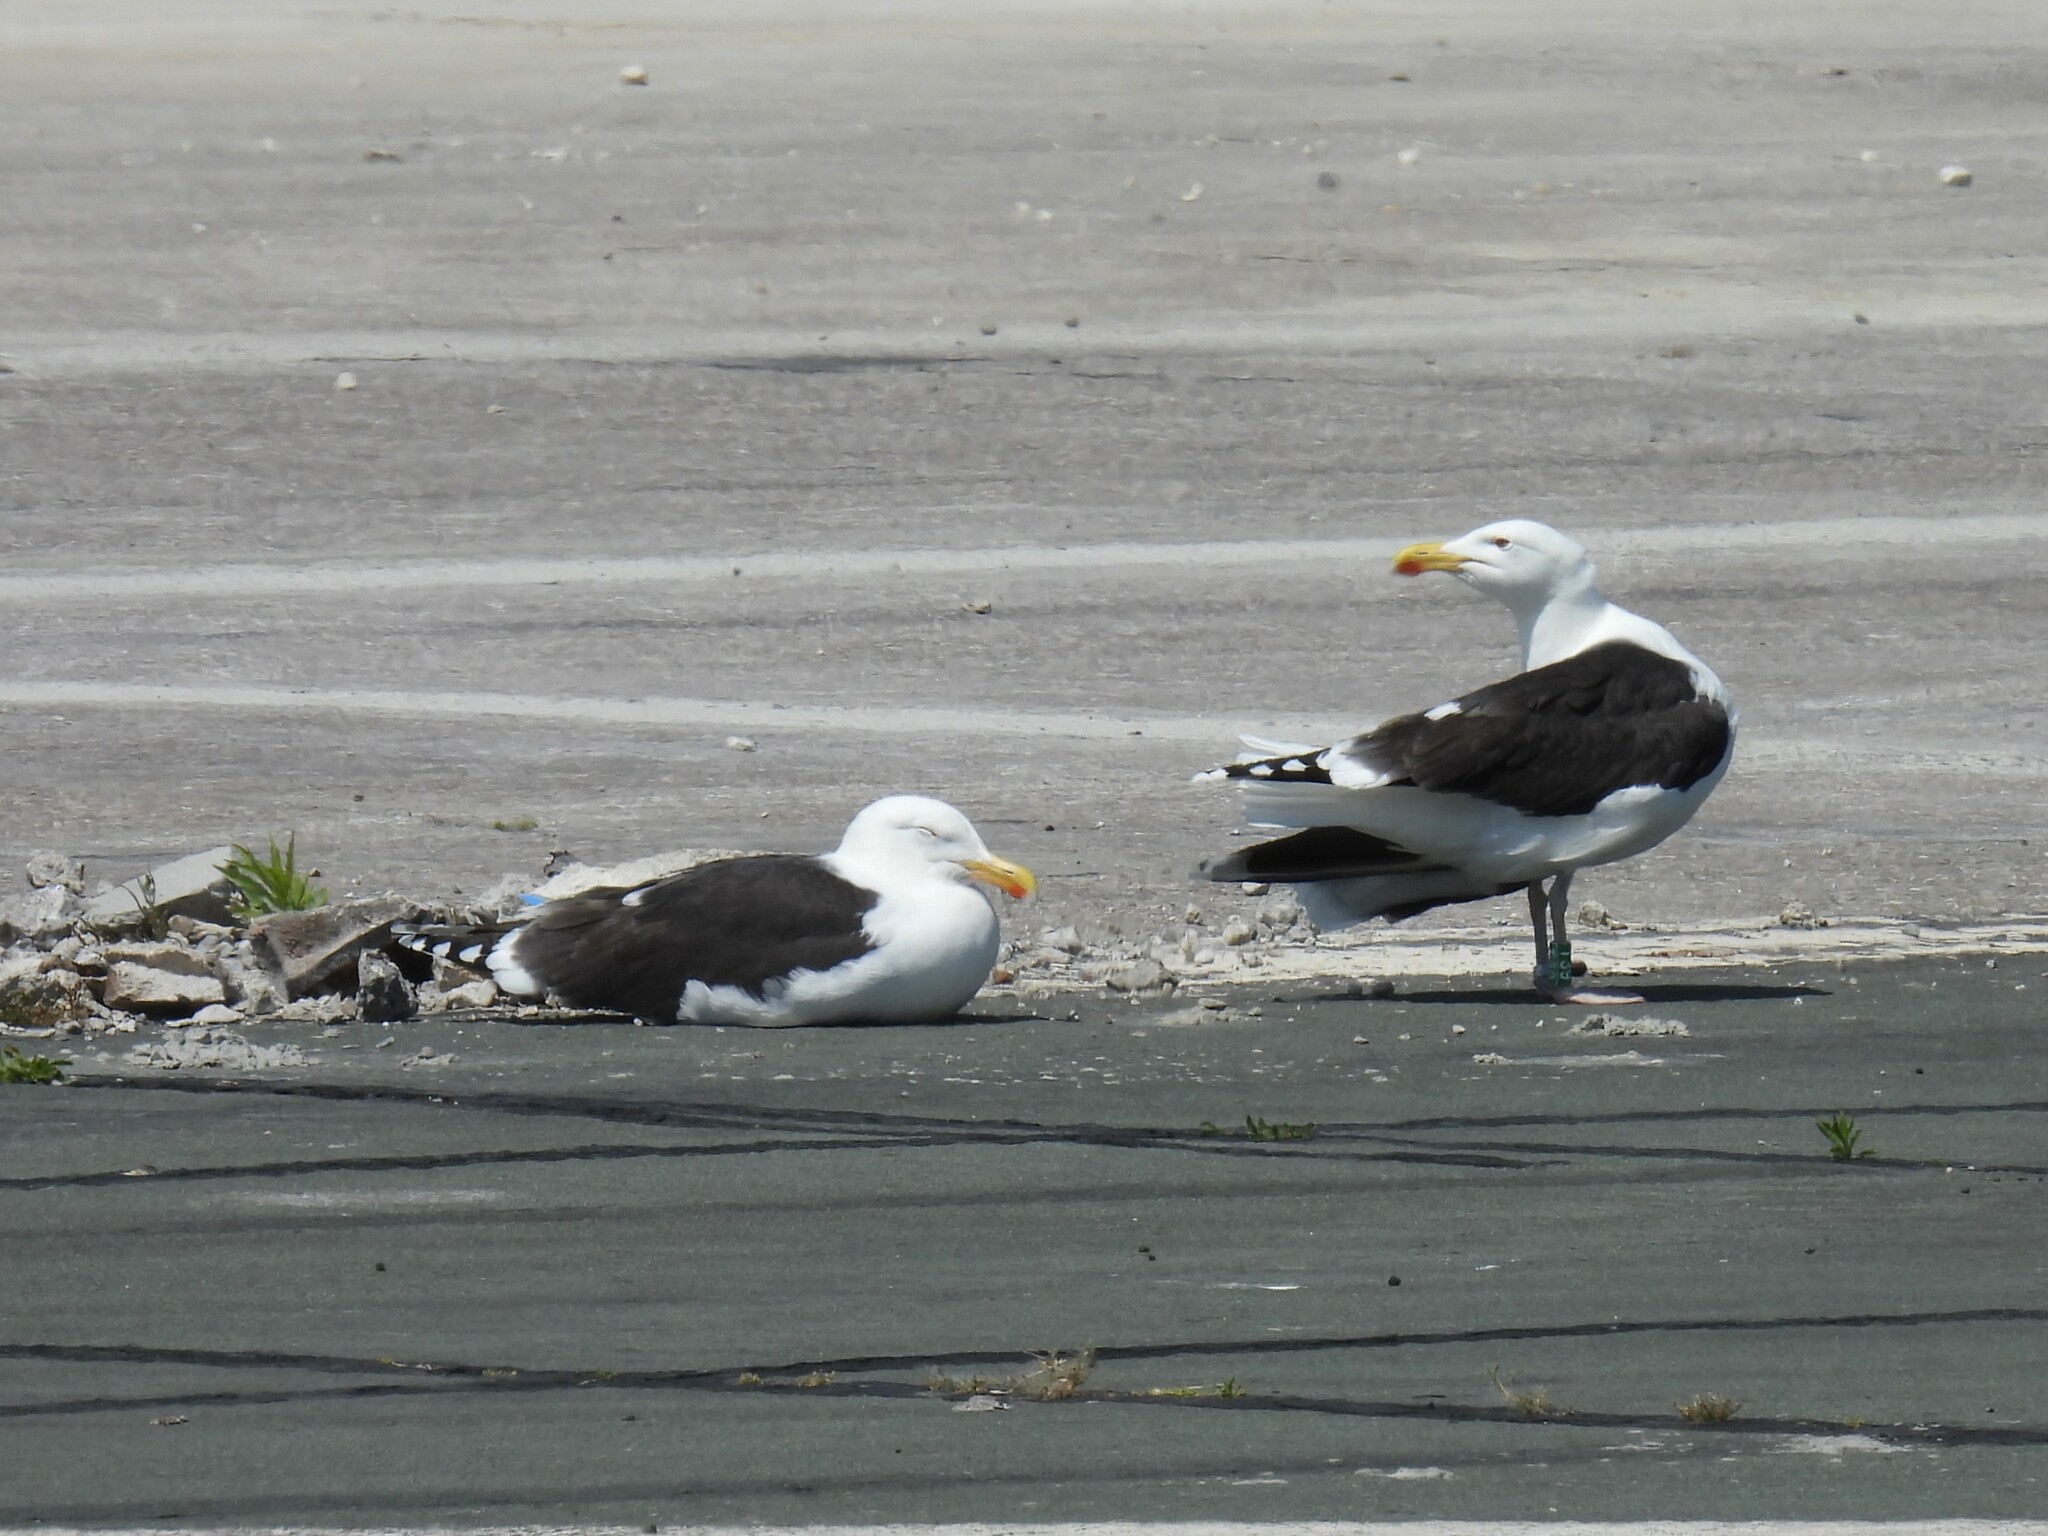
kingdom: Animalia
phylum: Chordata
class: Aves
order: Charadriiformes
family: Laridae
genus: Larus
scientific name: Larus marinus
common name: Great black-backed gull
